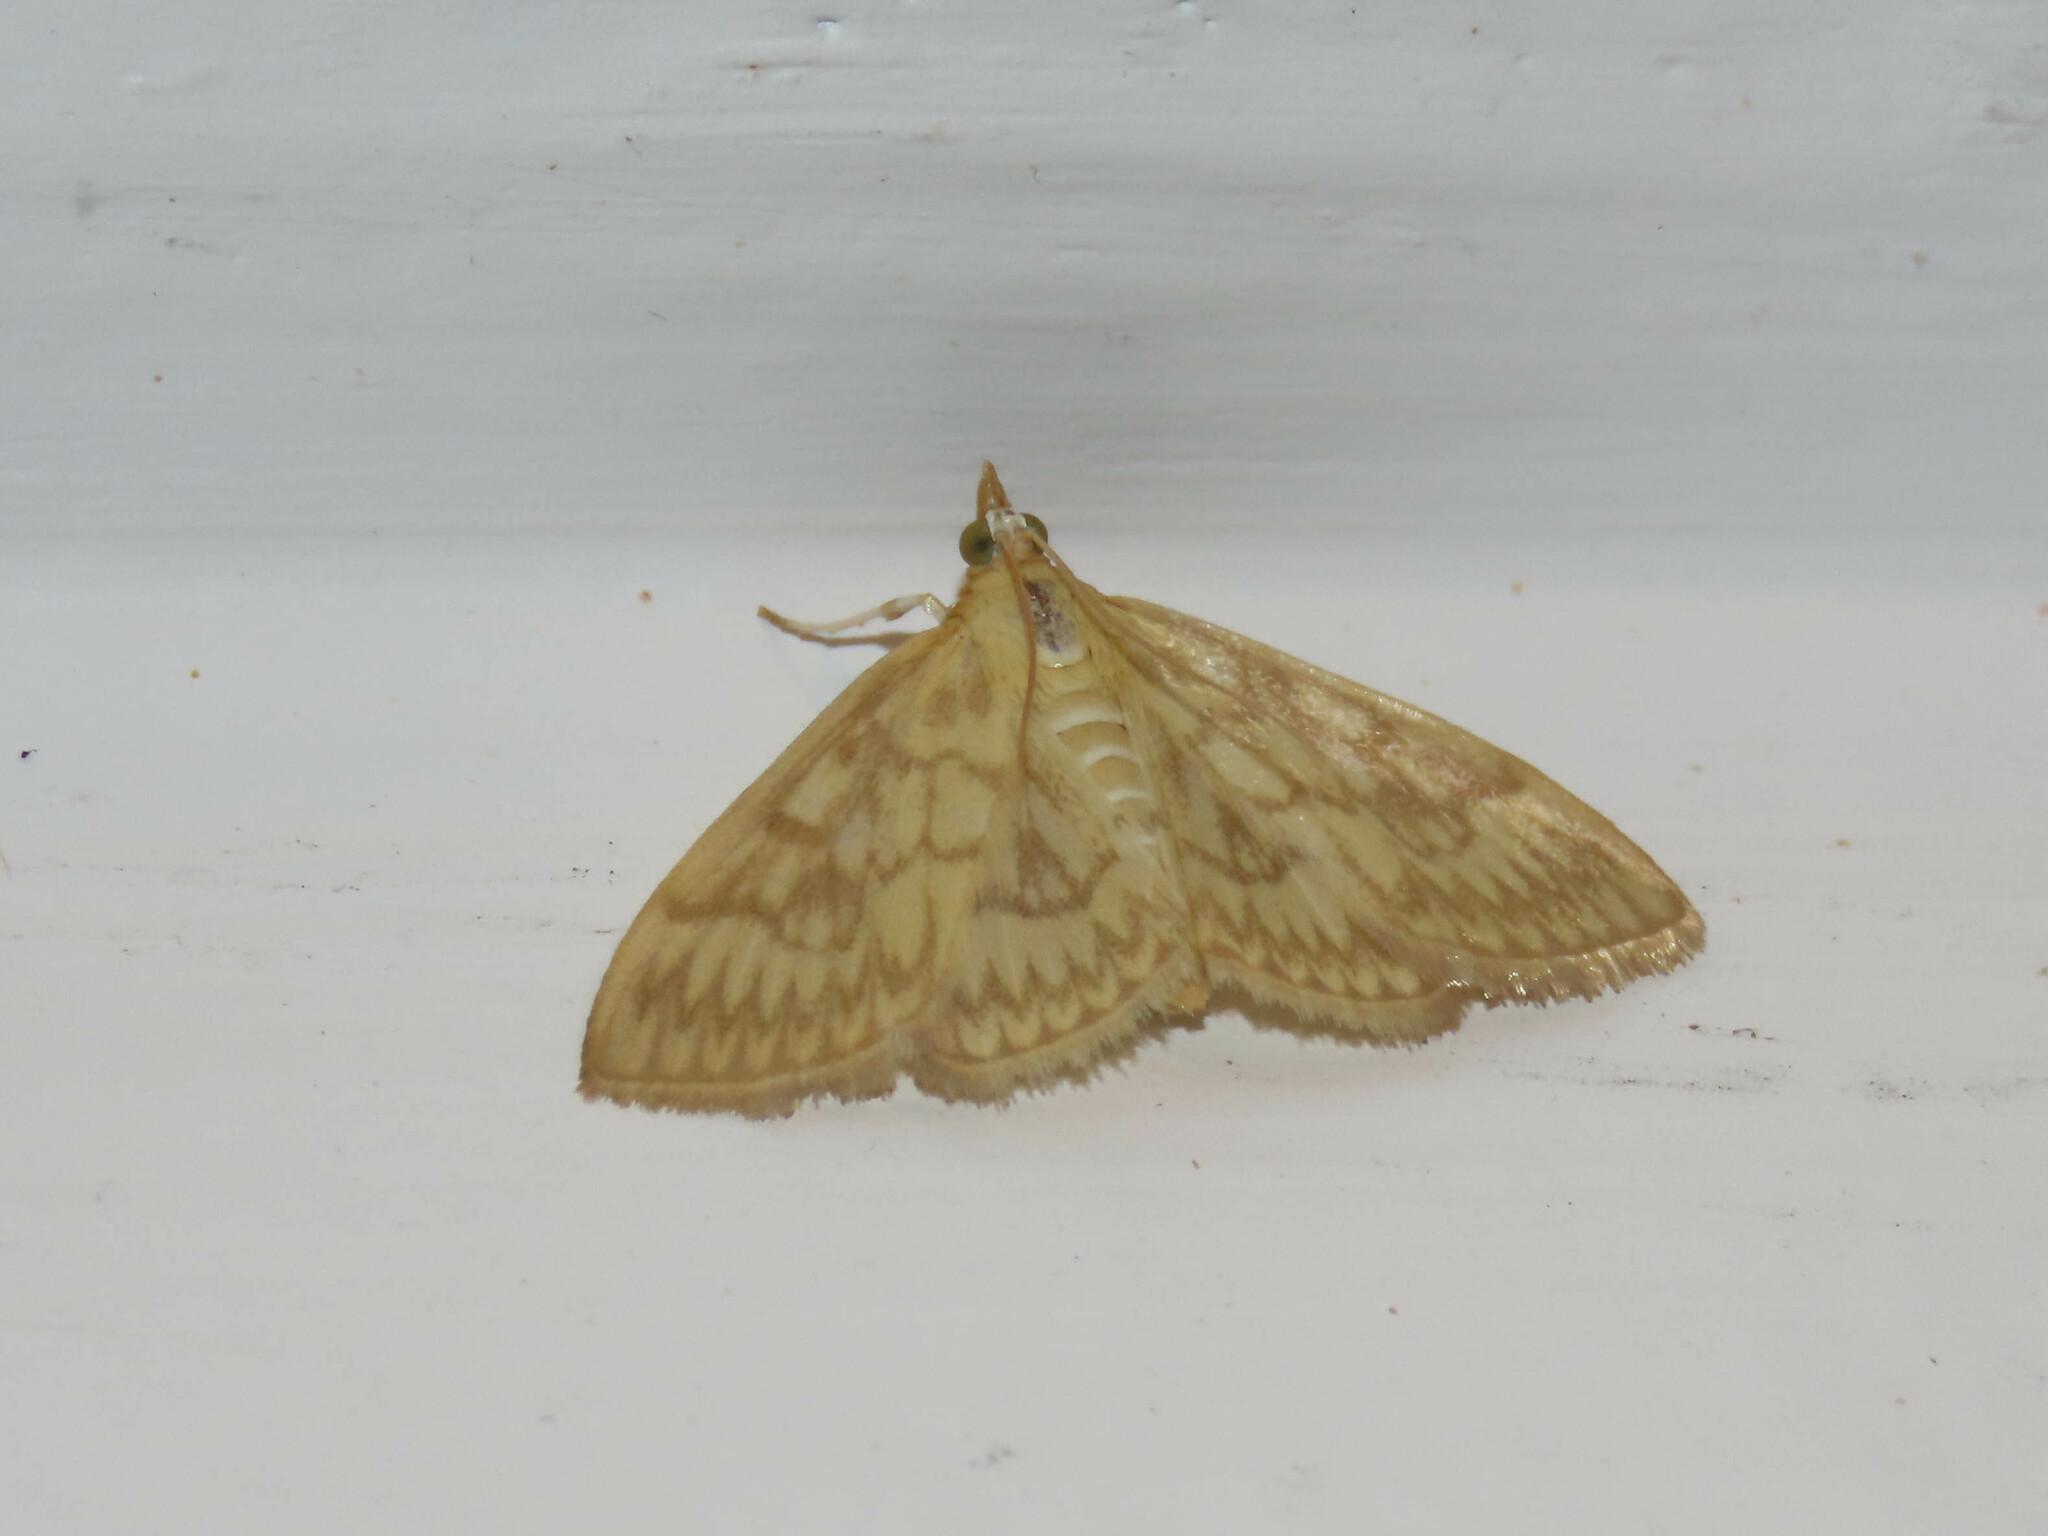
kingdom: Animalia
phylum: Arthropoda
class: Insecta
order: Lepidoptera
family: Crambidae
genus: Crocidophora
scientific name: Crocidophora serratissimalis
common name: Saw-toothed crocidophora moth
